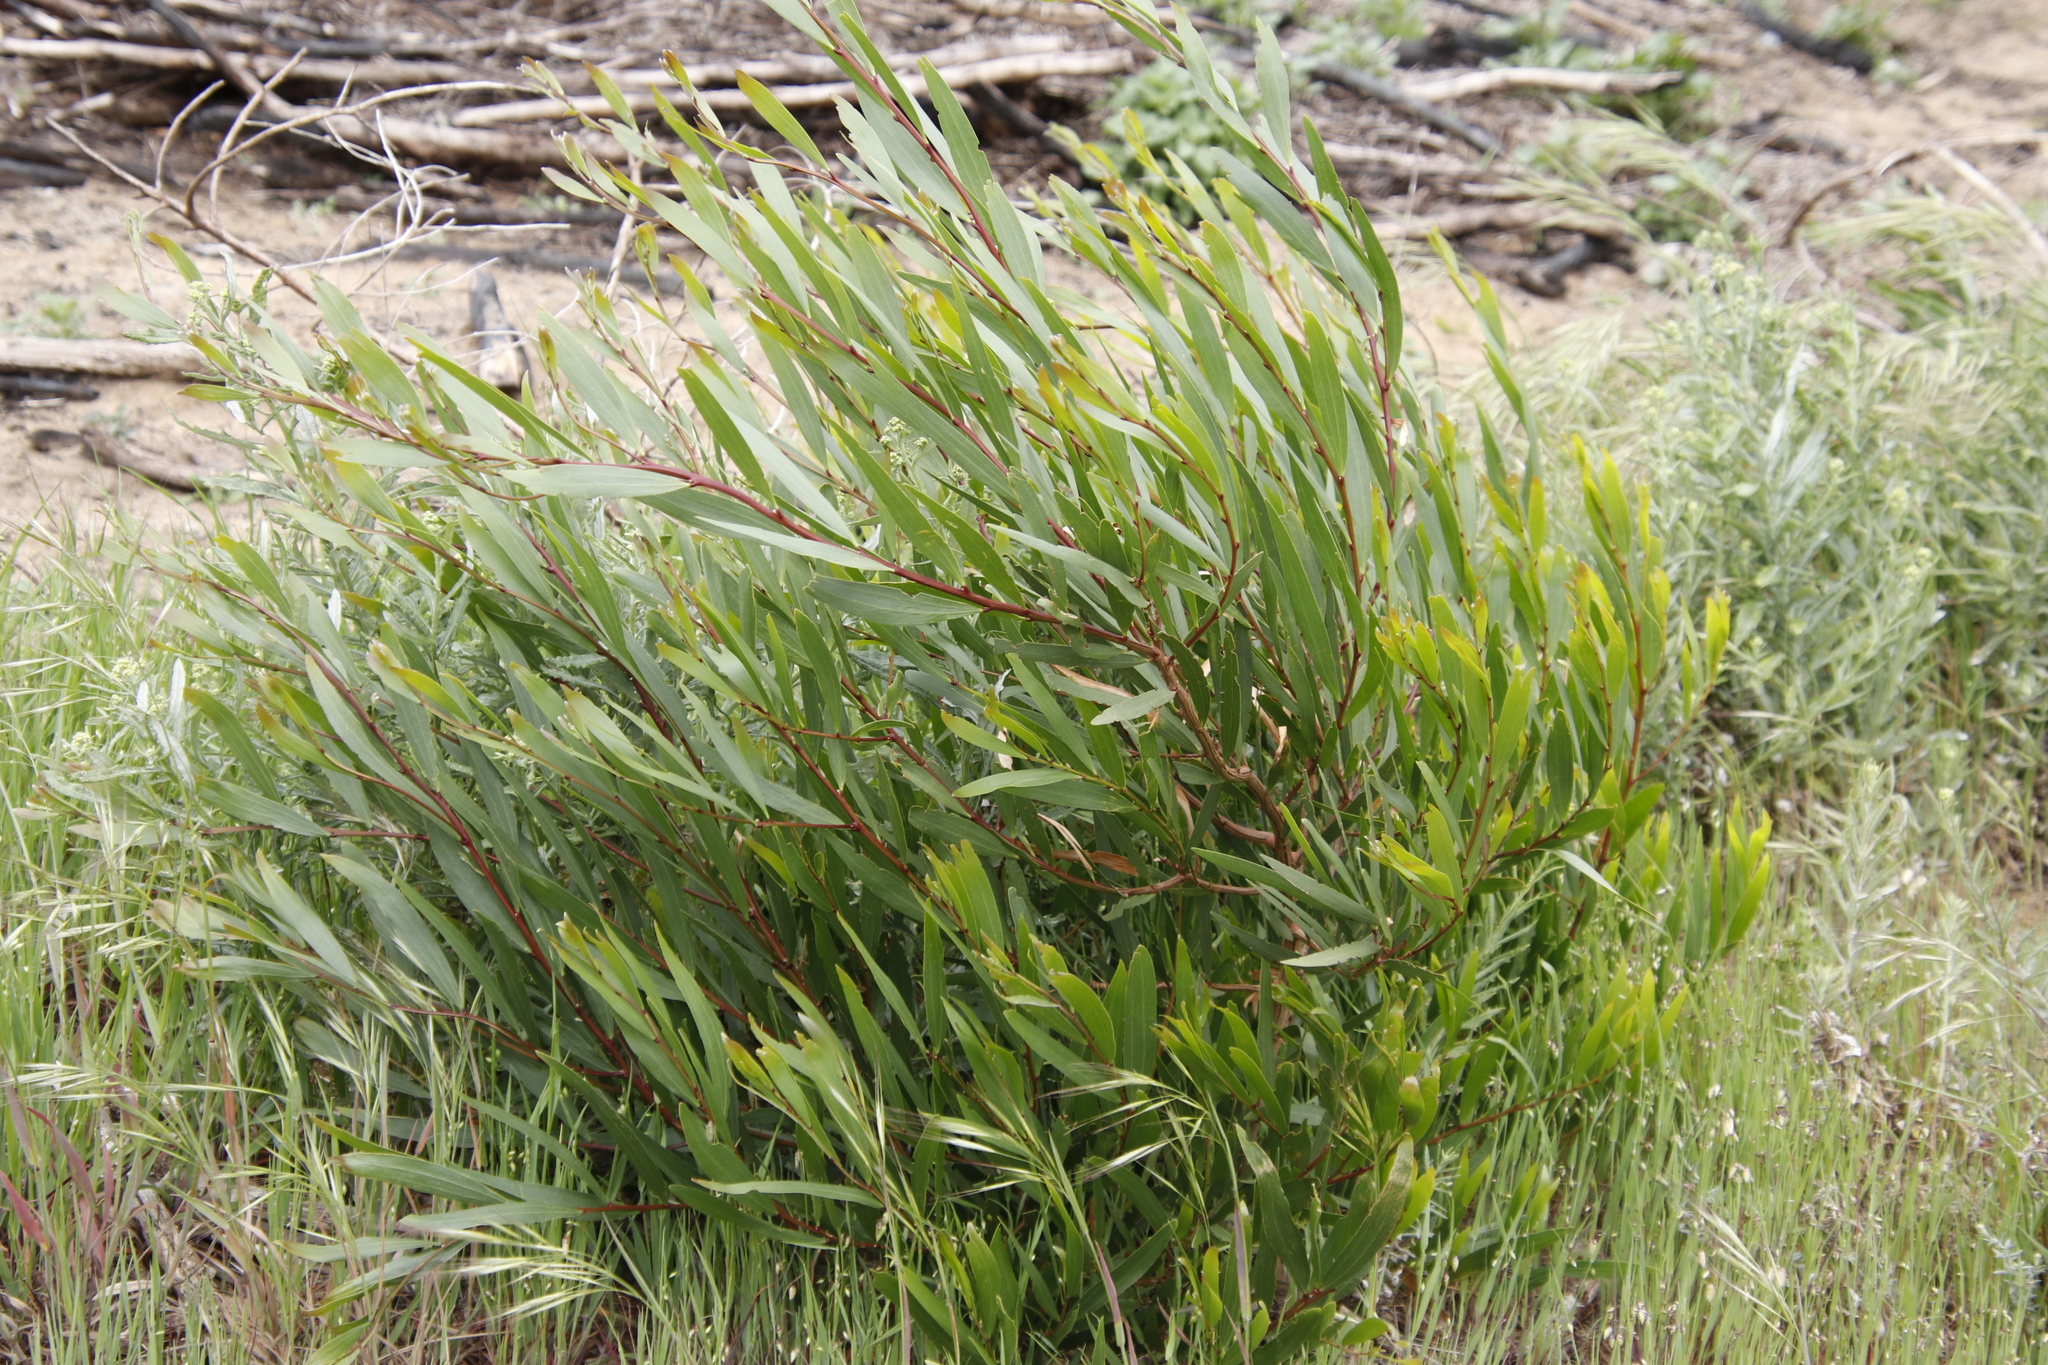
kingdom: Plantae
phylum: Tracheophyta
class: Magnoliopsida
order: Fabales
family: Fabaceae
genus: Acacia
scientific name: Acacia longifolia
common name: Sydney golden wattle
